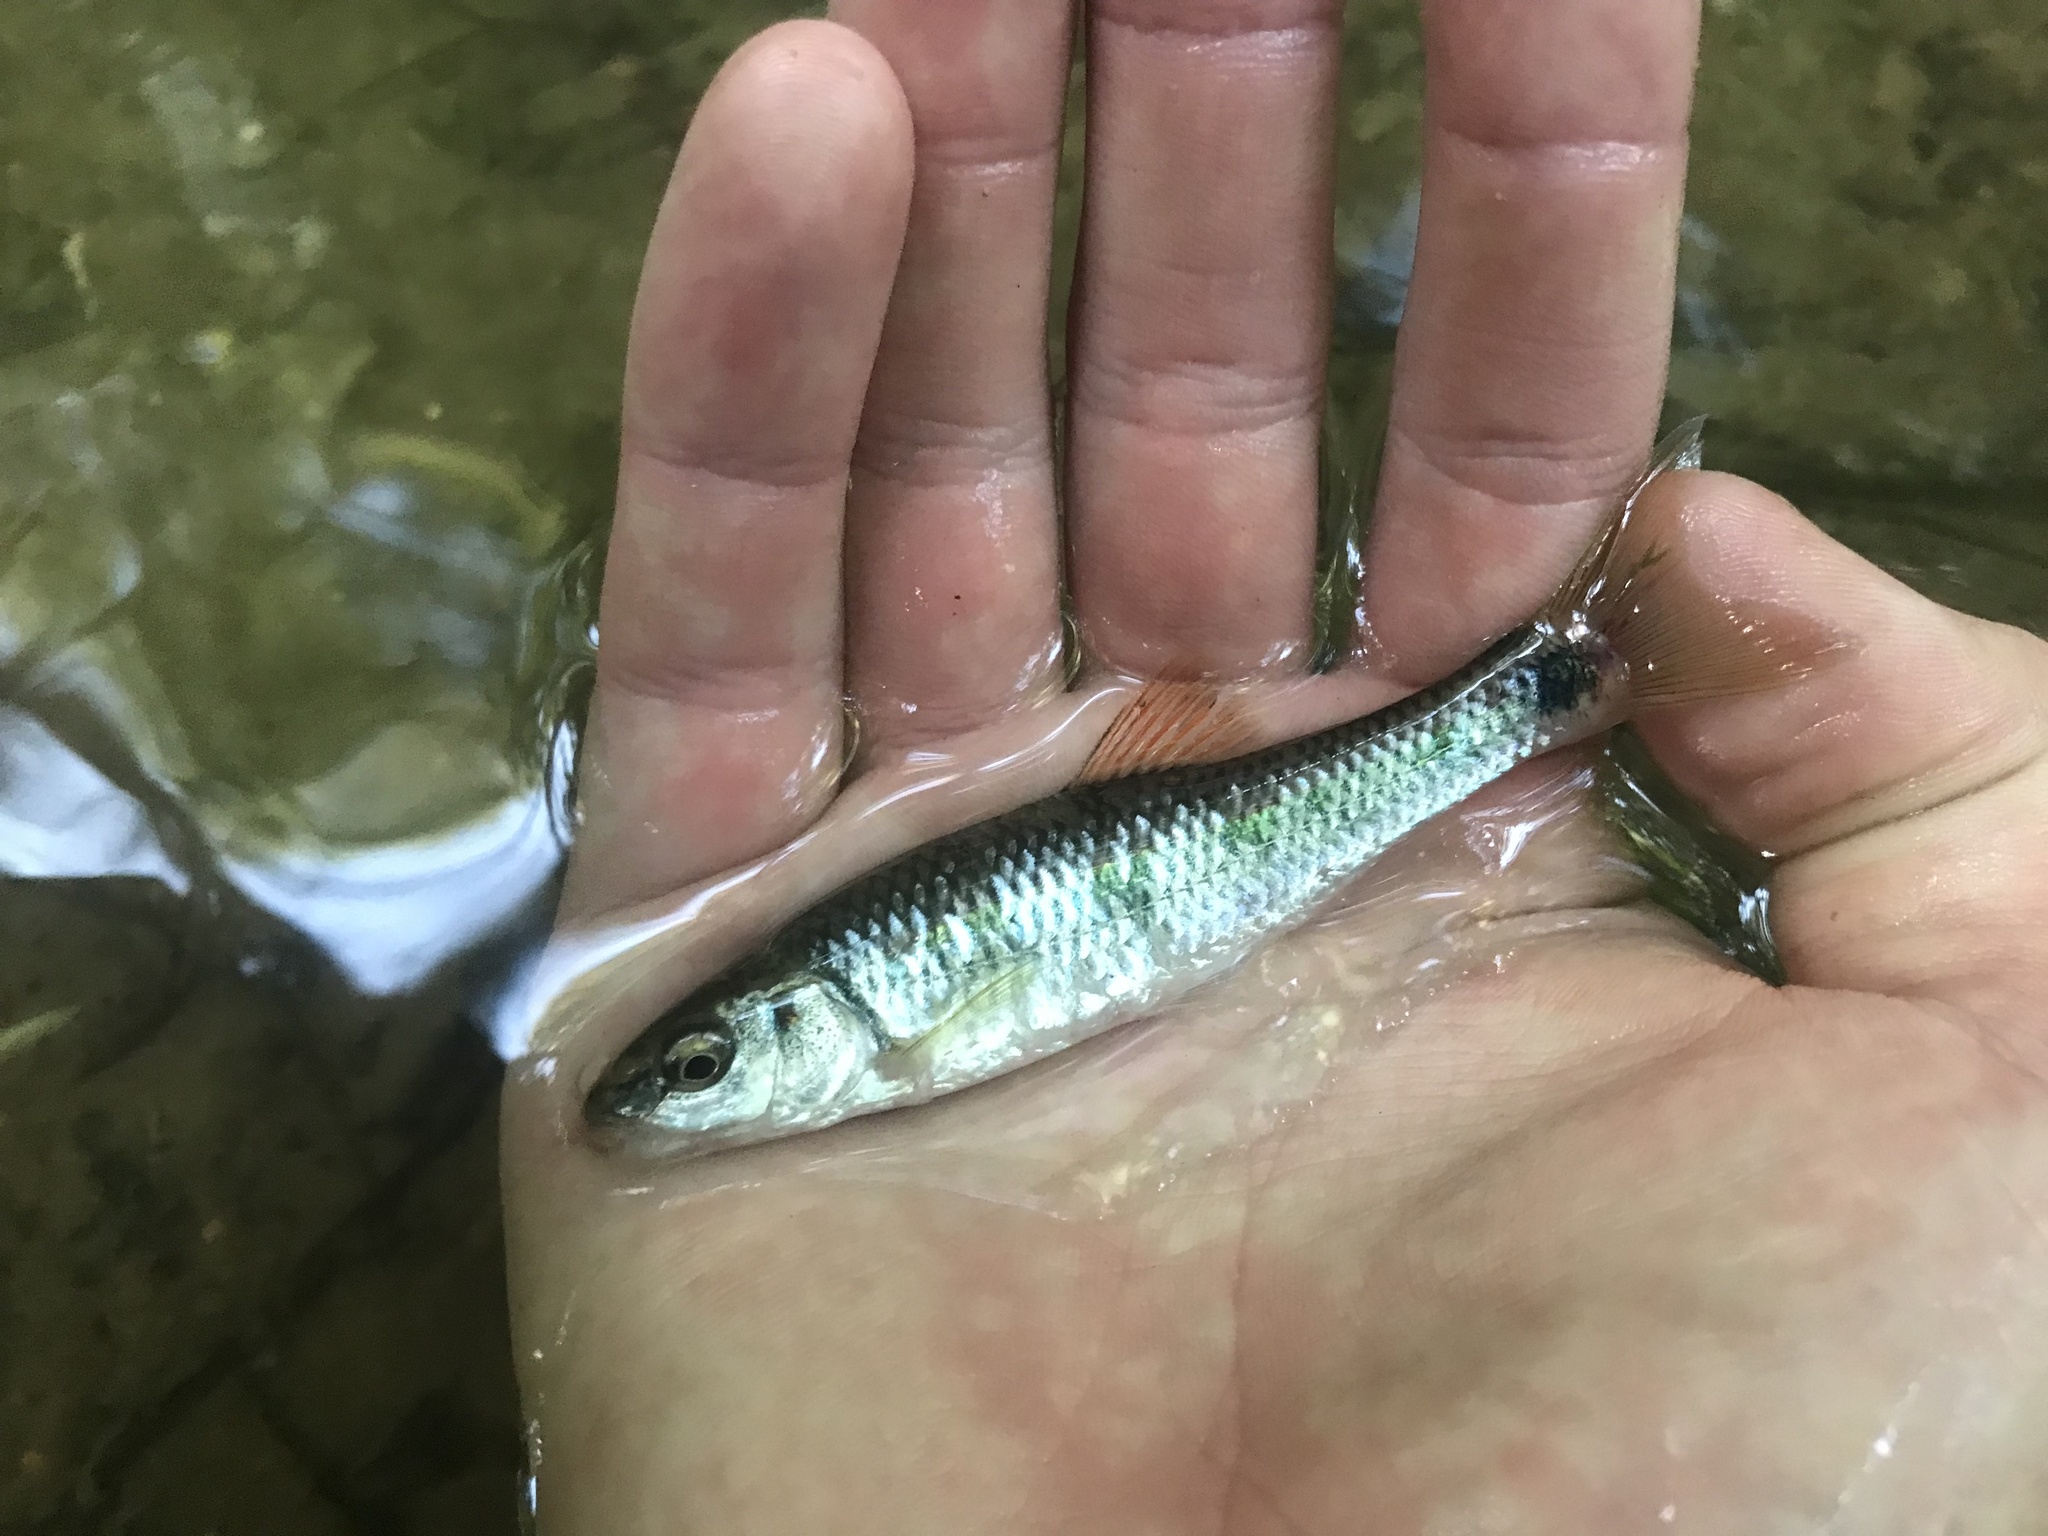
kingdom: Animalia
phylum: Chordata
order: Cypriniformes
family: Cyprinidae
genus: Cyprinella
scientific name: Cyprinella callistia
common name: Alabama shiner
